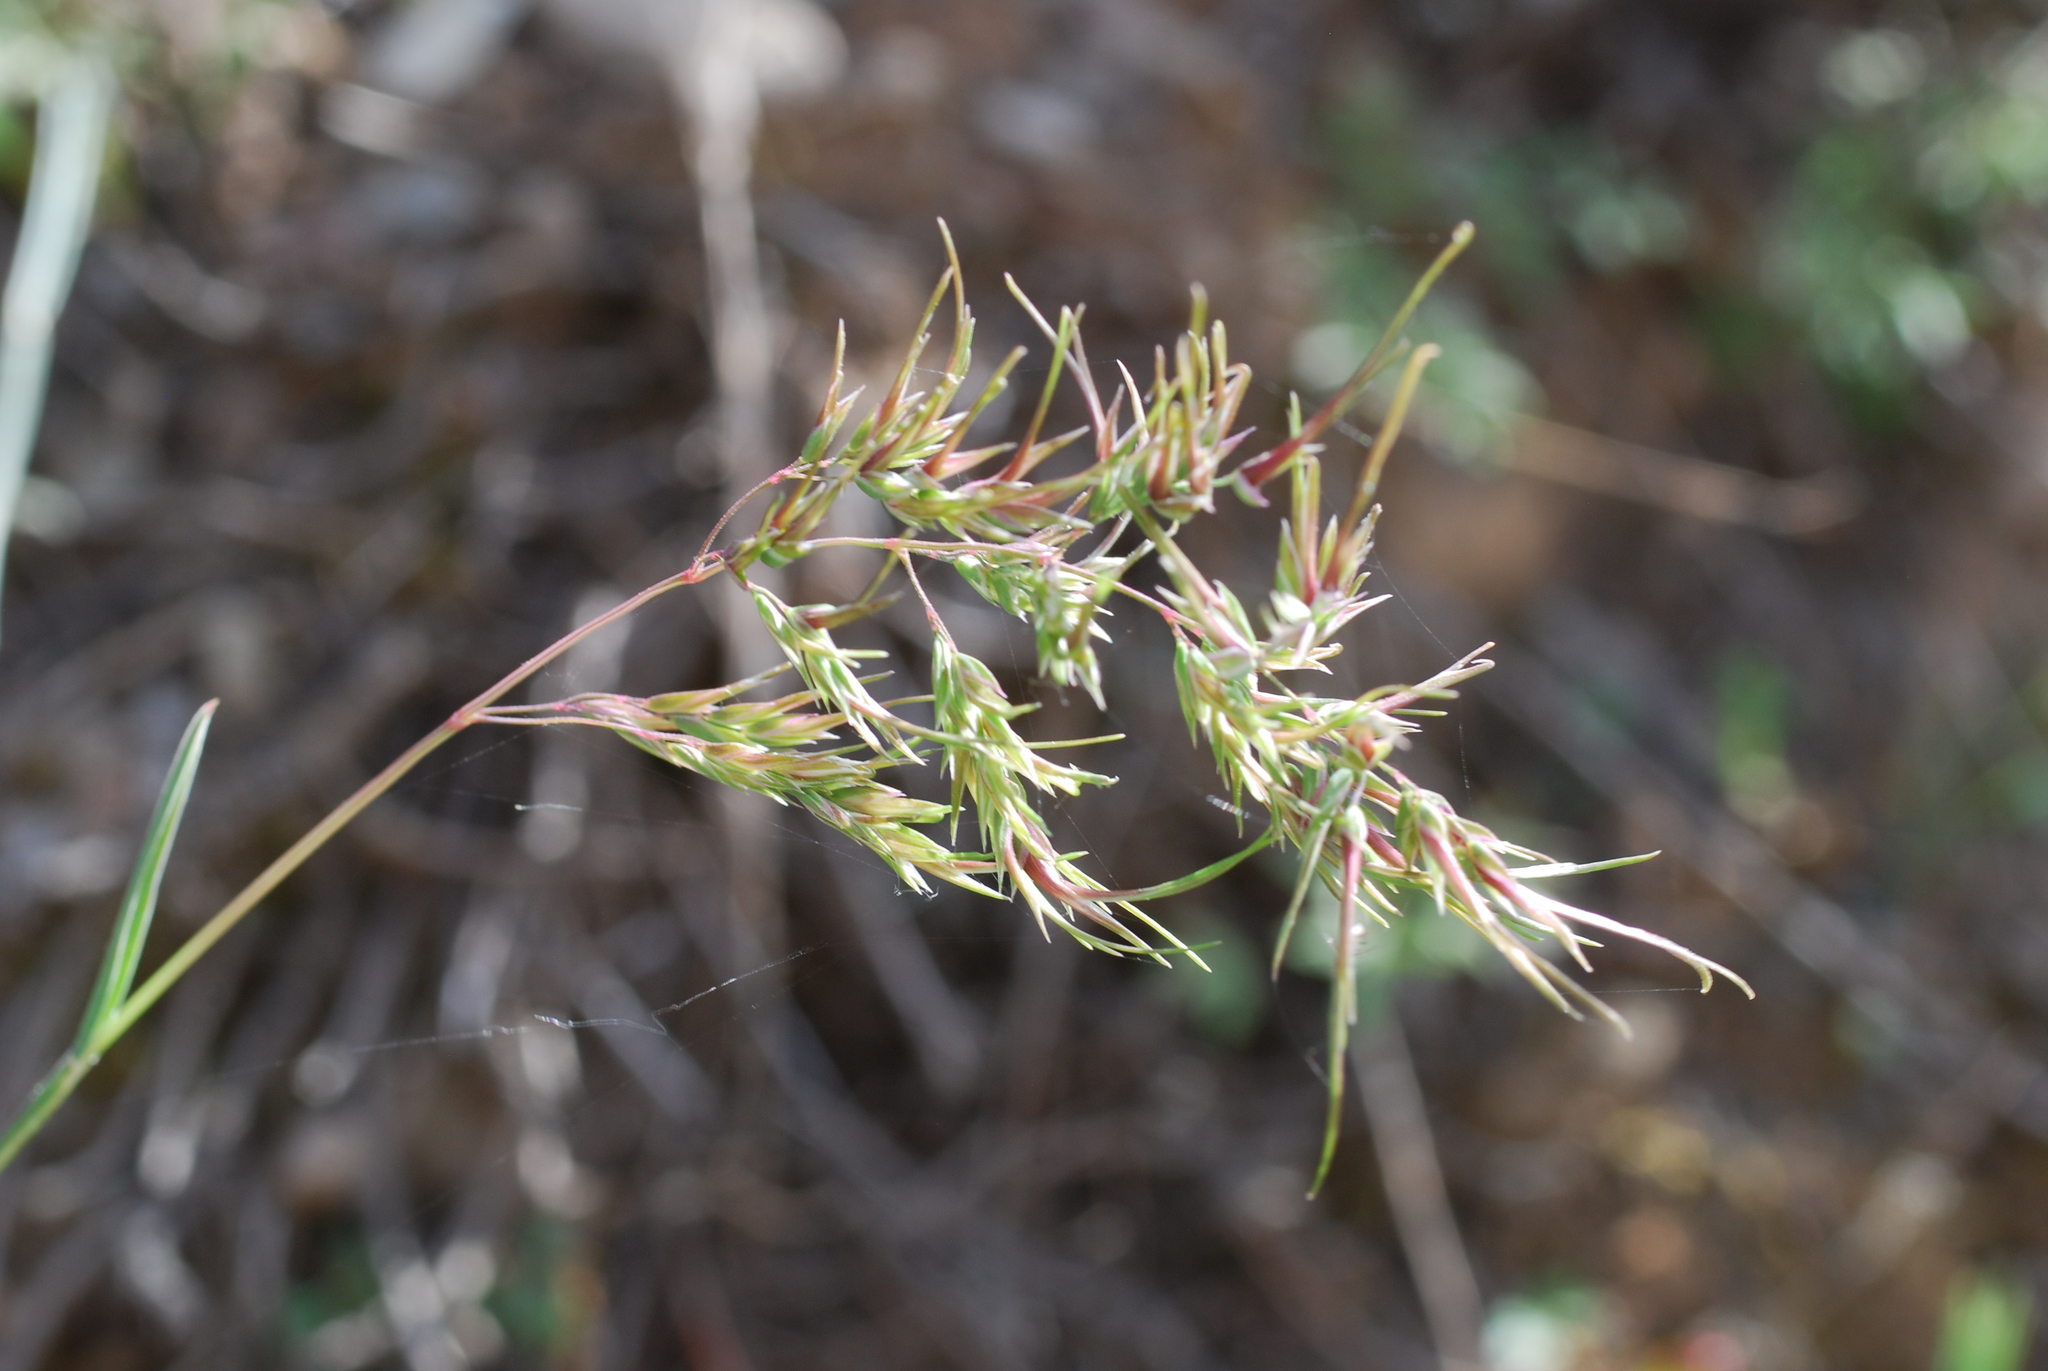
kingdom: Plantae
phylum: Tracheophyta
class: Liliopsida
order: Poales
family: Poaceae
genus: Poa
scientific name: Poa bulbosa
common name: Bulbous bluegrass
